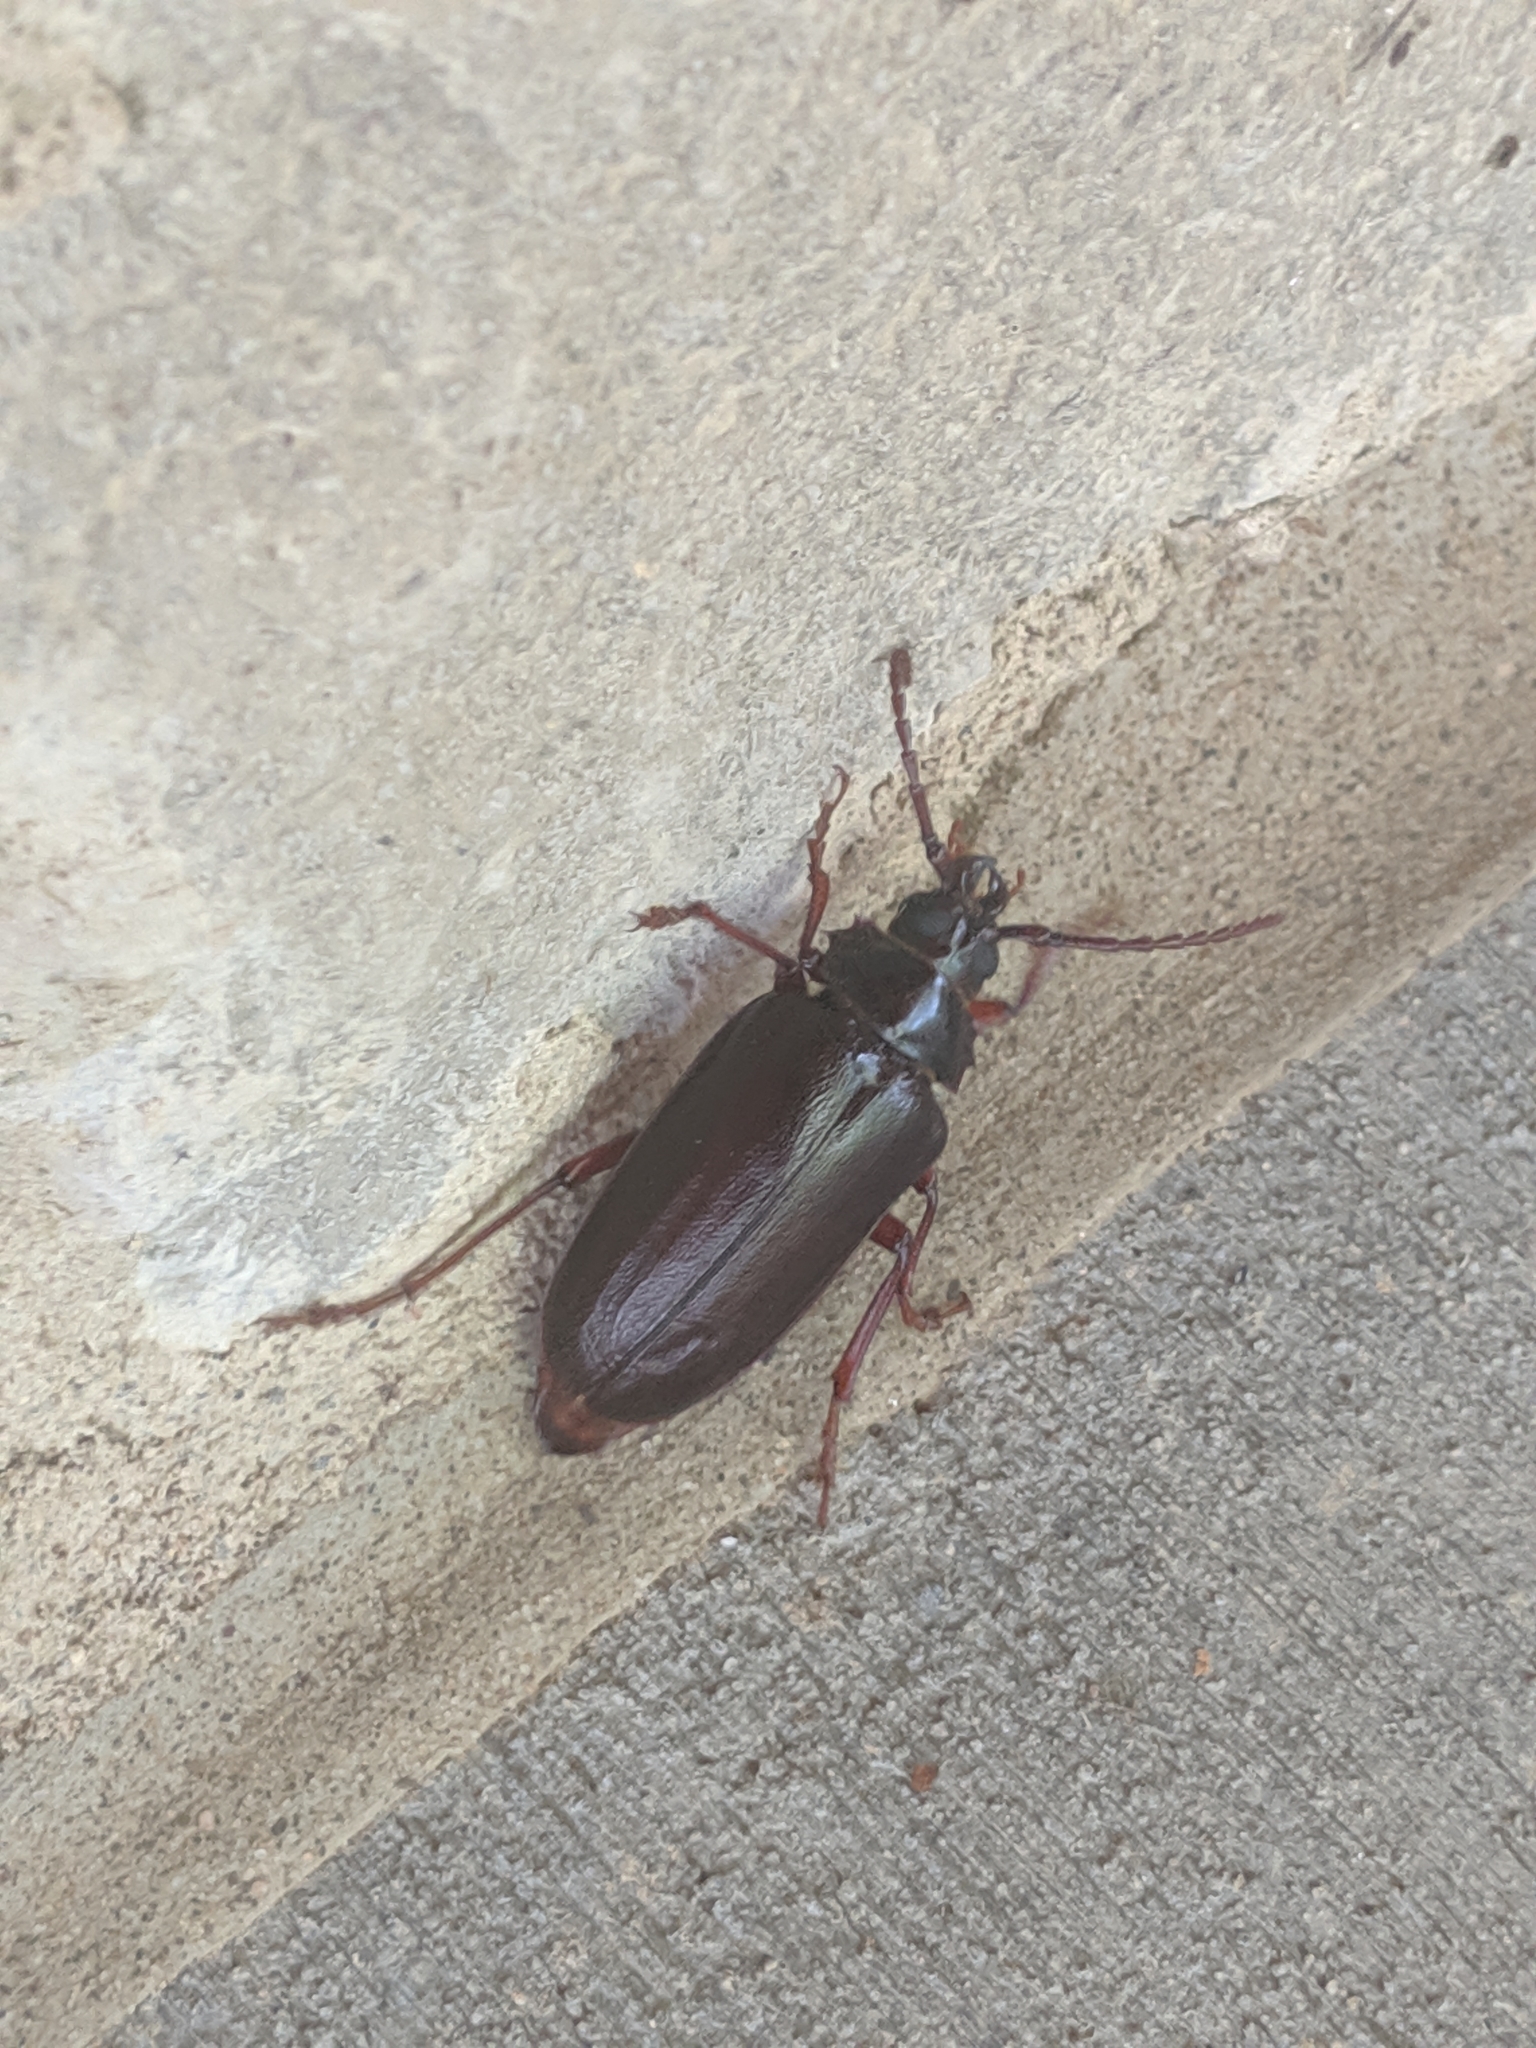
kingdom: Animalia
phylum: Arthropoda
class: Insecta
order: Coleoptera
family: Cerambycidae
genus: Prionus
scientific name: Prionus pocularis
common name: Tooth-necked longhorn beetle
